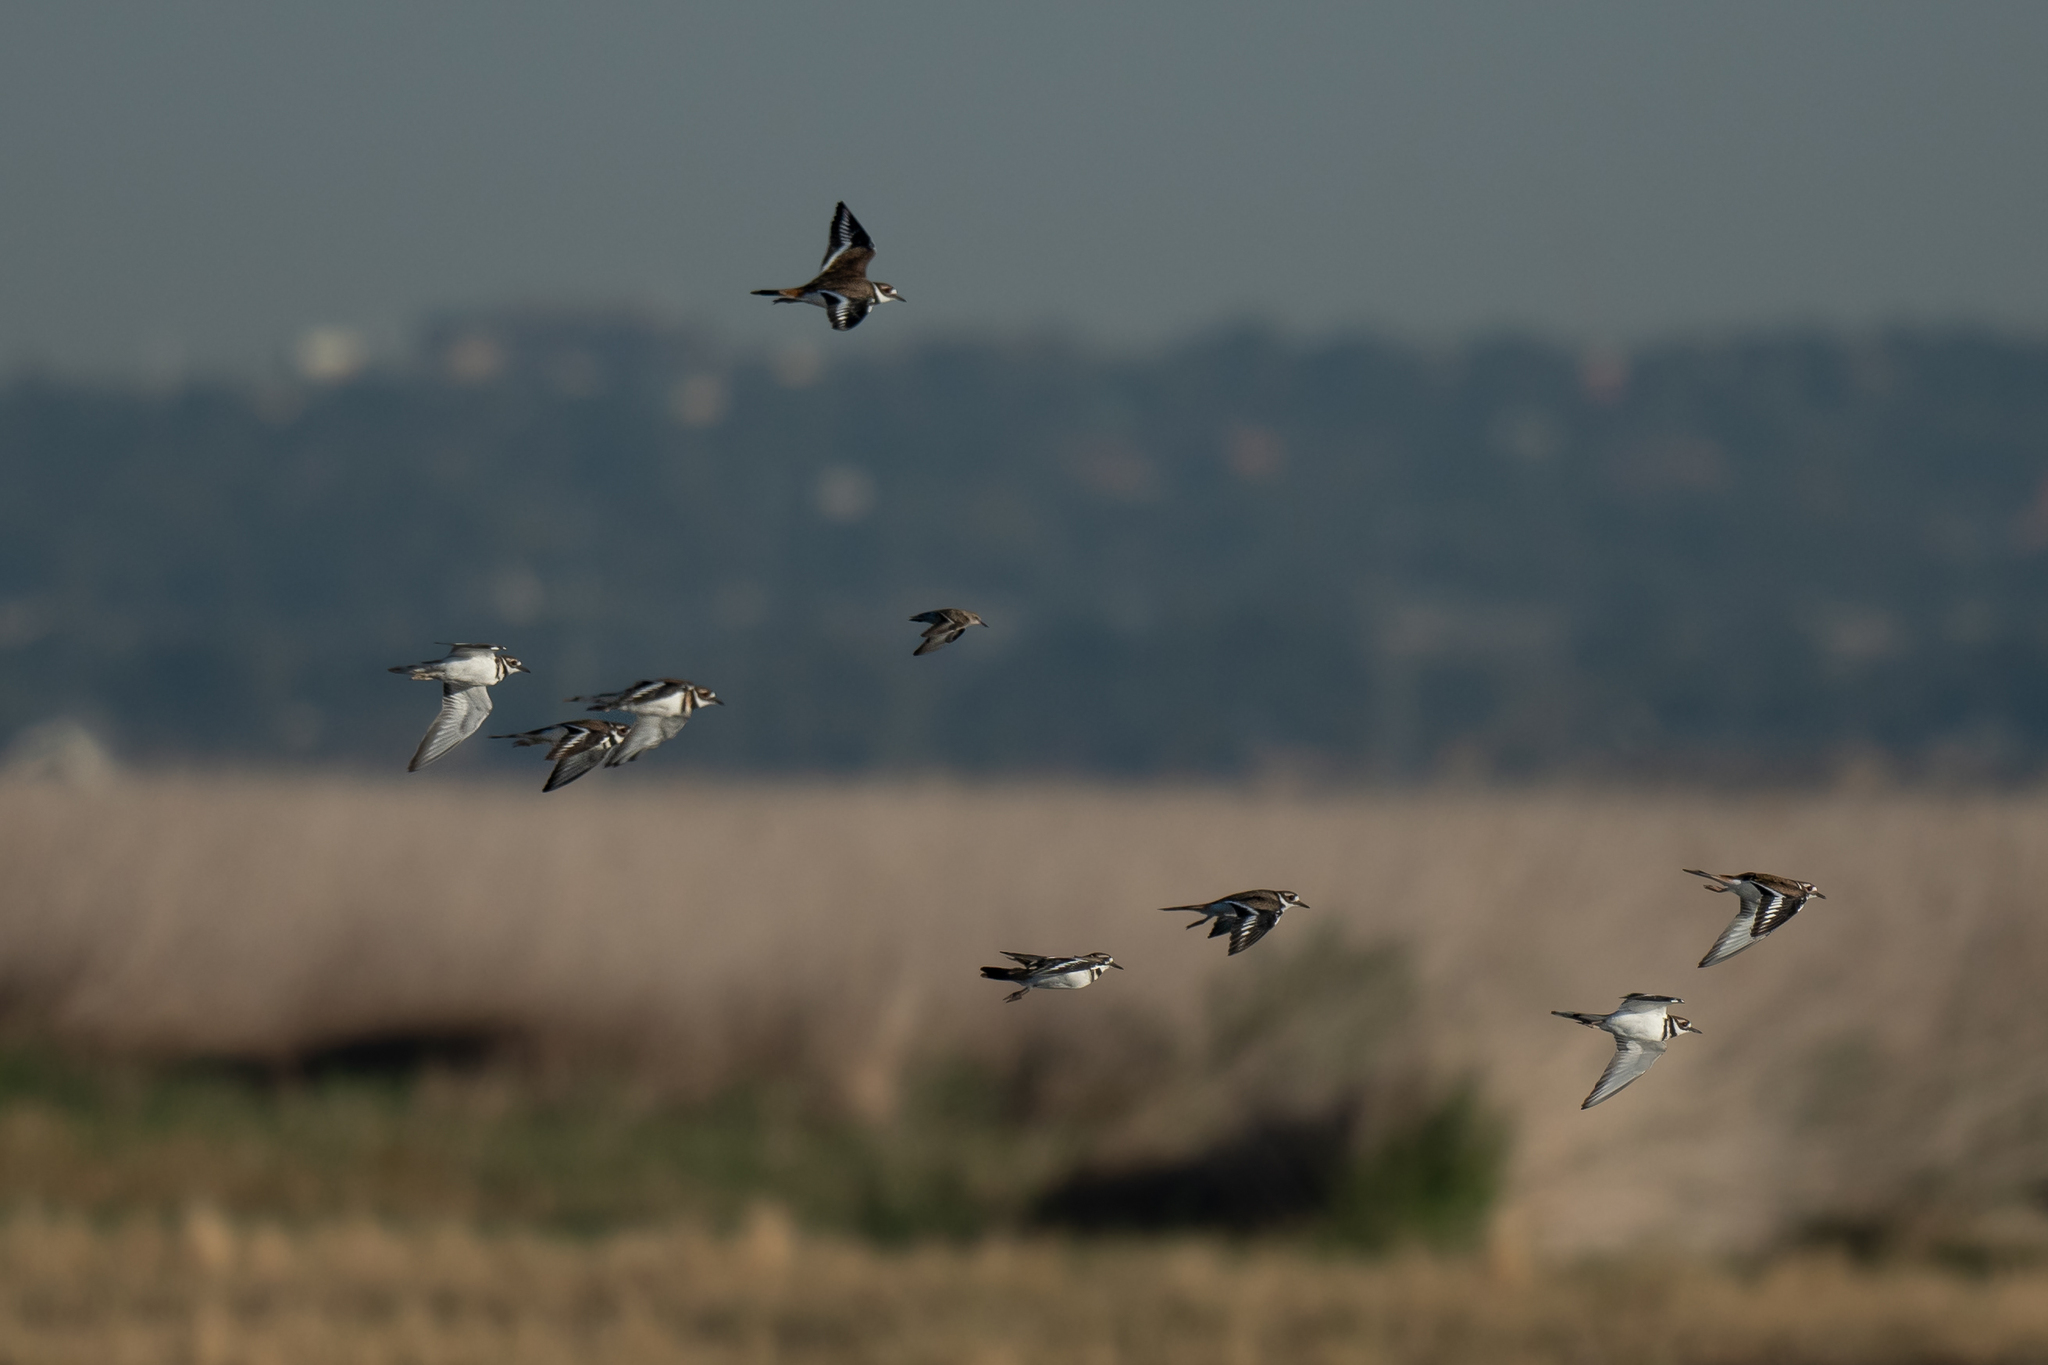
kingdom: Animalia
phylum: Chordata
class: Aves
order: Charadriiformes
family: Charadriidae
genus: Charadrius
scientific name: Charadrius vociferus
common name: Killdeer
